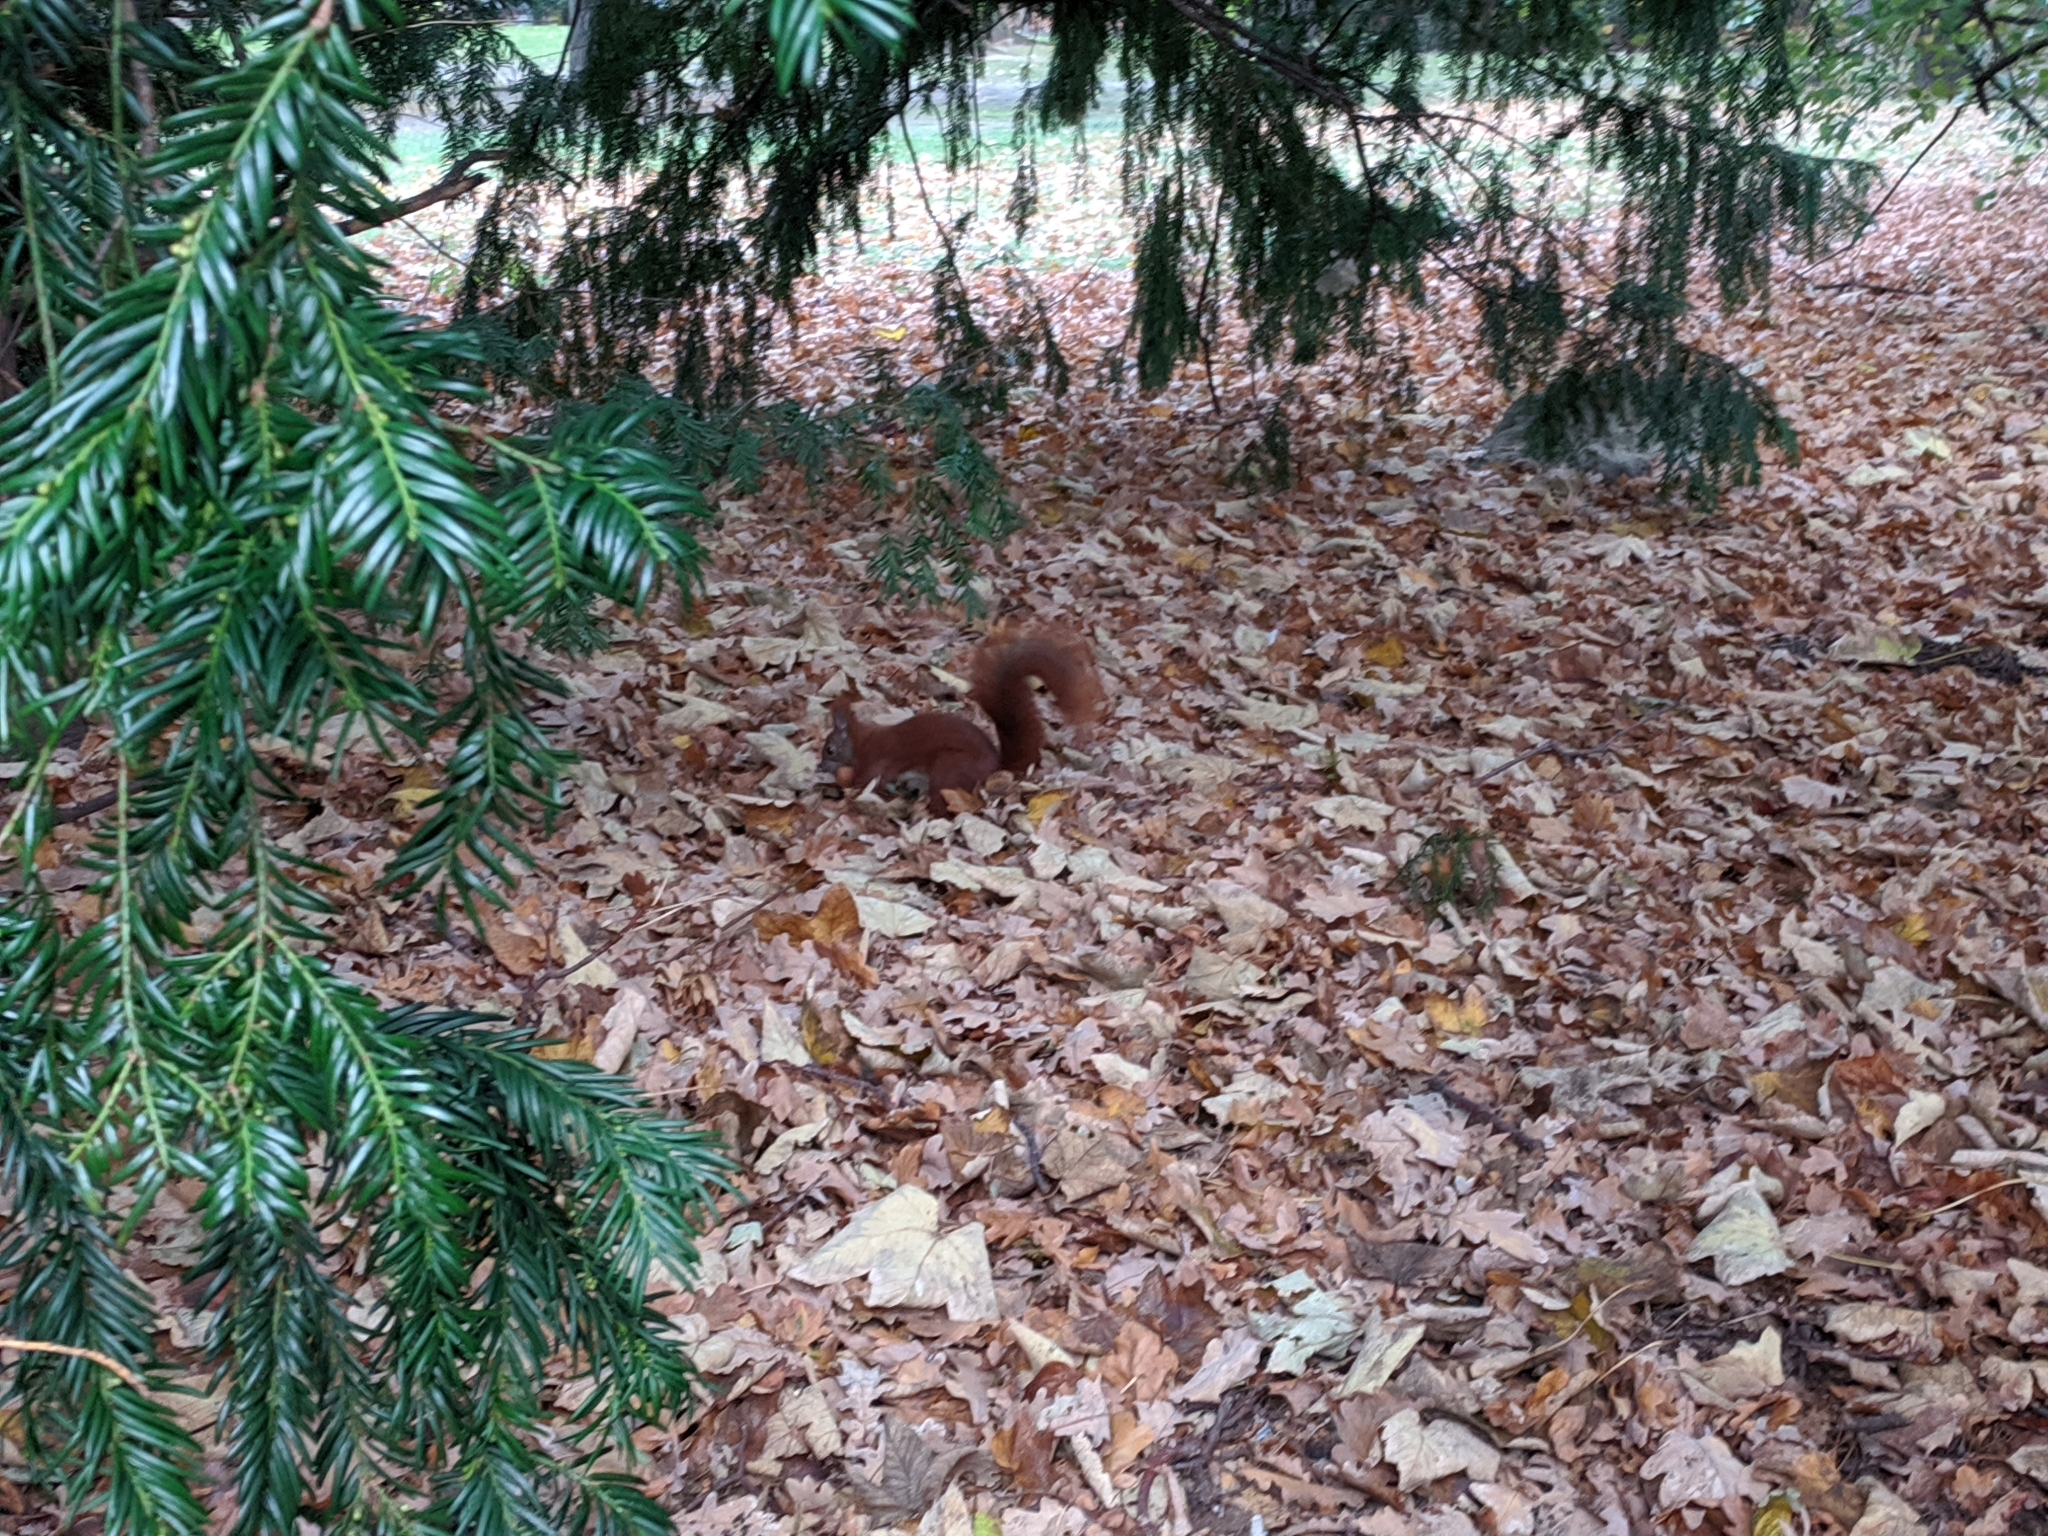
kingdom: Animalia
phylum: Chordata
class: Mammalia
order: Rodentia
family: Sciuridae
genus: Sciurus
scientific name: Sciurus vulgaris
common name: Eurasian red squirrel
